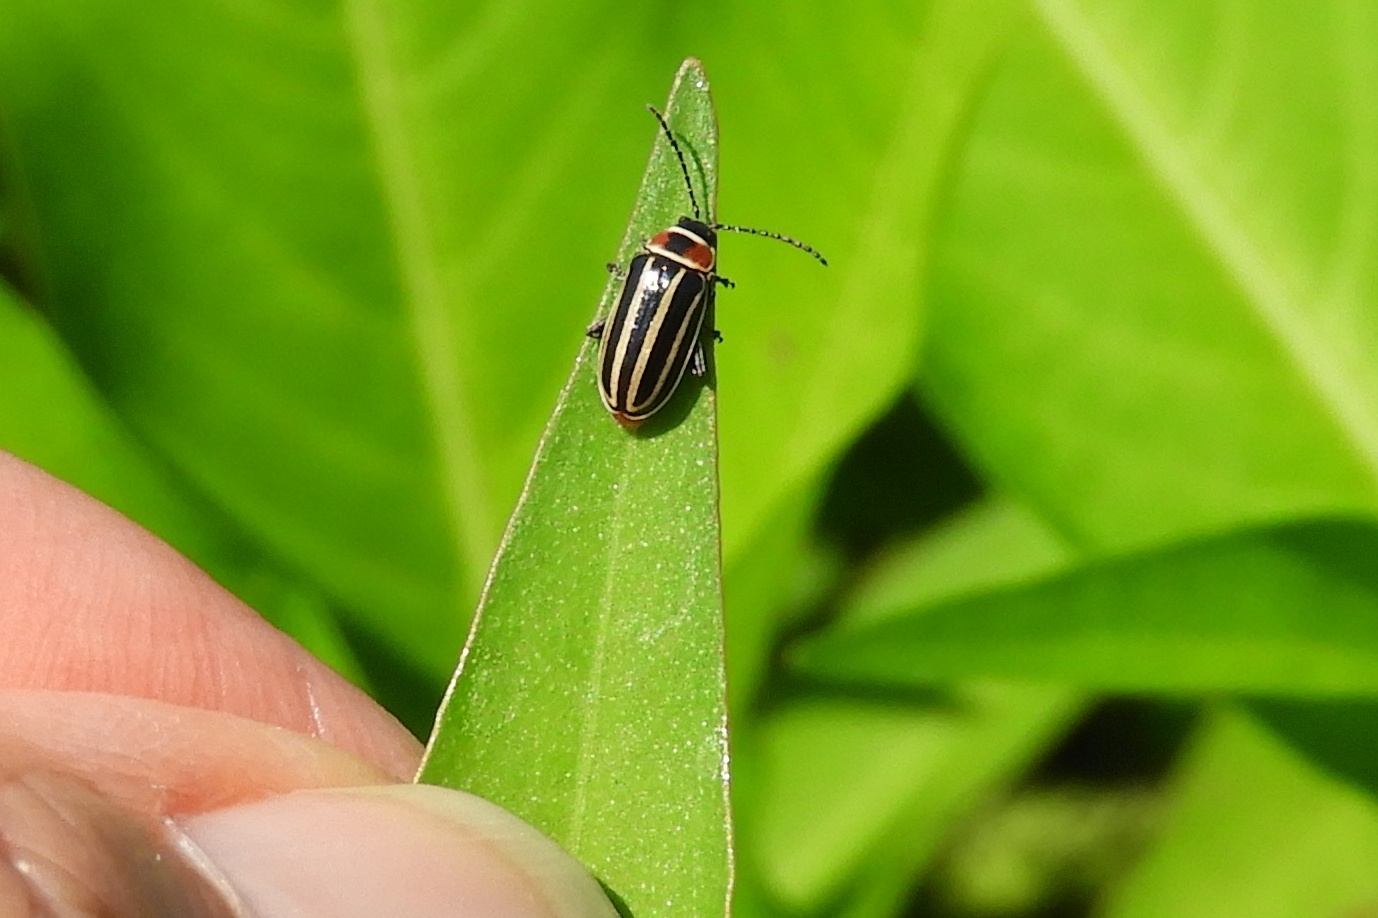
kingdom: Animalia
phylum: Arthropoda
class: Insecta
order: Coleoptera
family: Chrysomelidae
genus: Disonycha
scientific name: Disonycha pensylvanica
